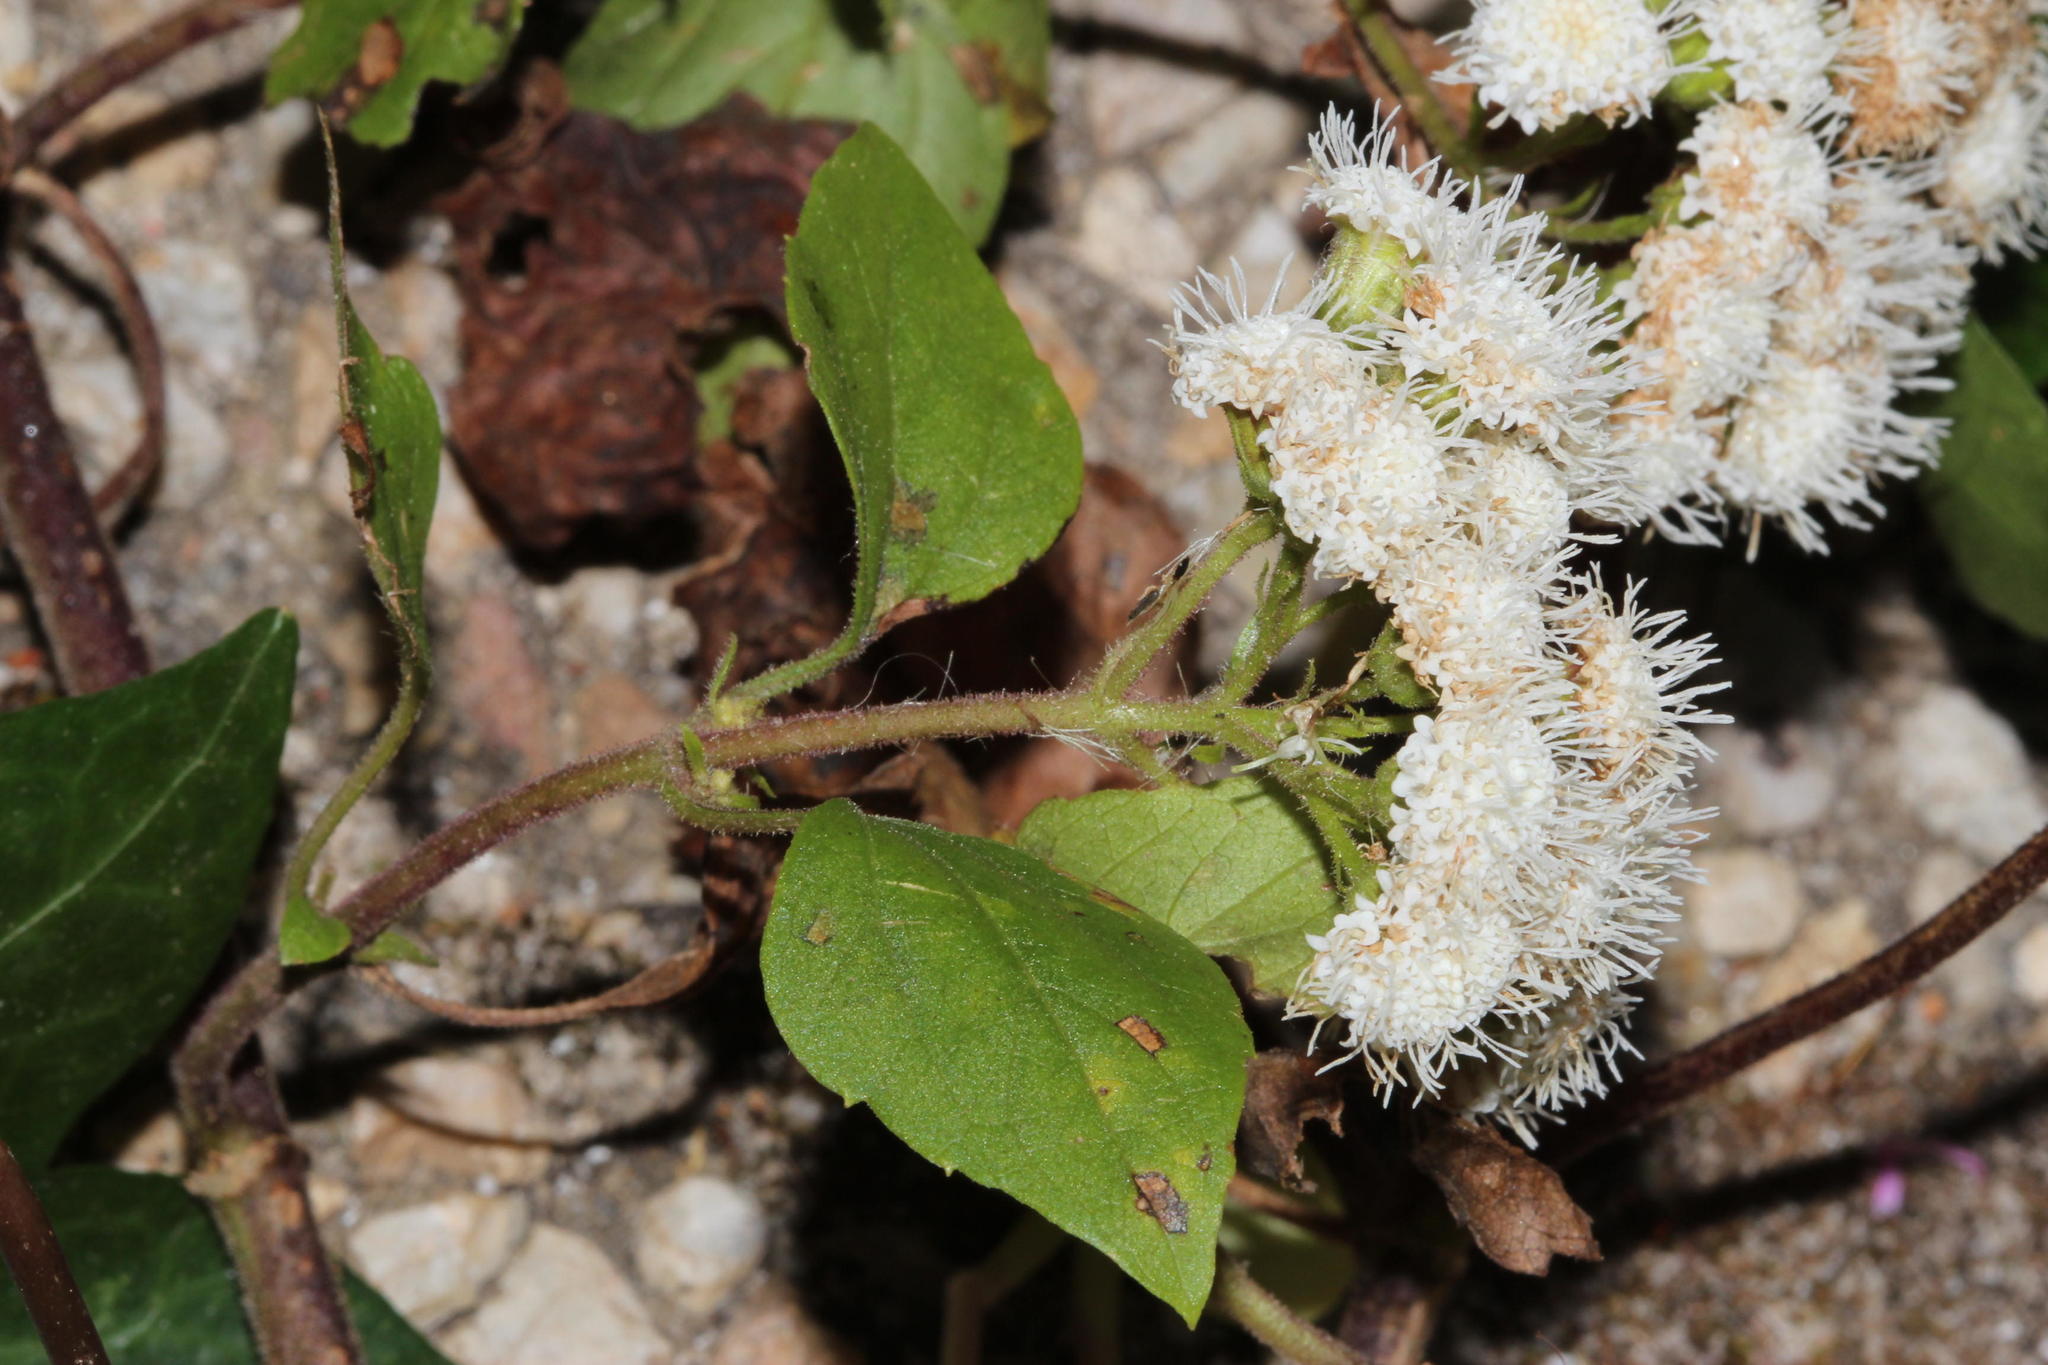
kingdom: Plantae
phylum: Tracheophyta
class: Magnoliopsida
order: Asterales
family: Asteraceae
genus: Ageratina
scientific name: Ageratina adenophora
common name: Sticky snakeroot
